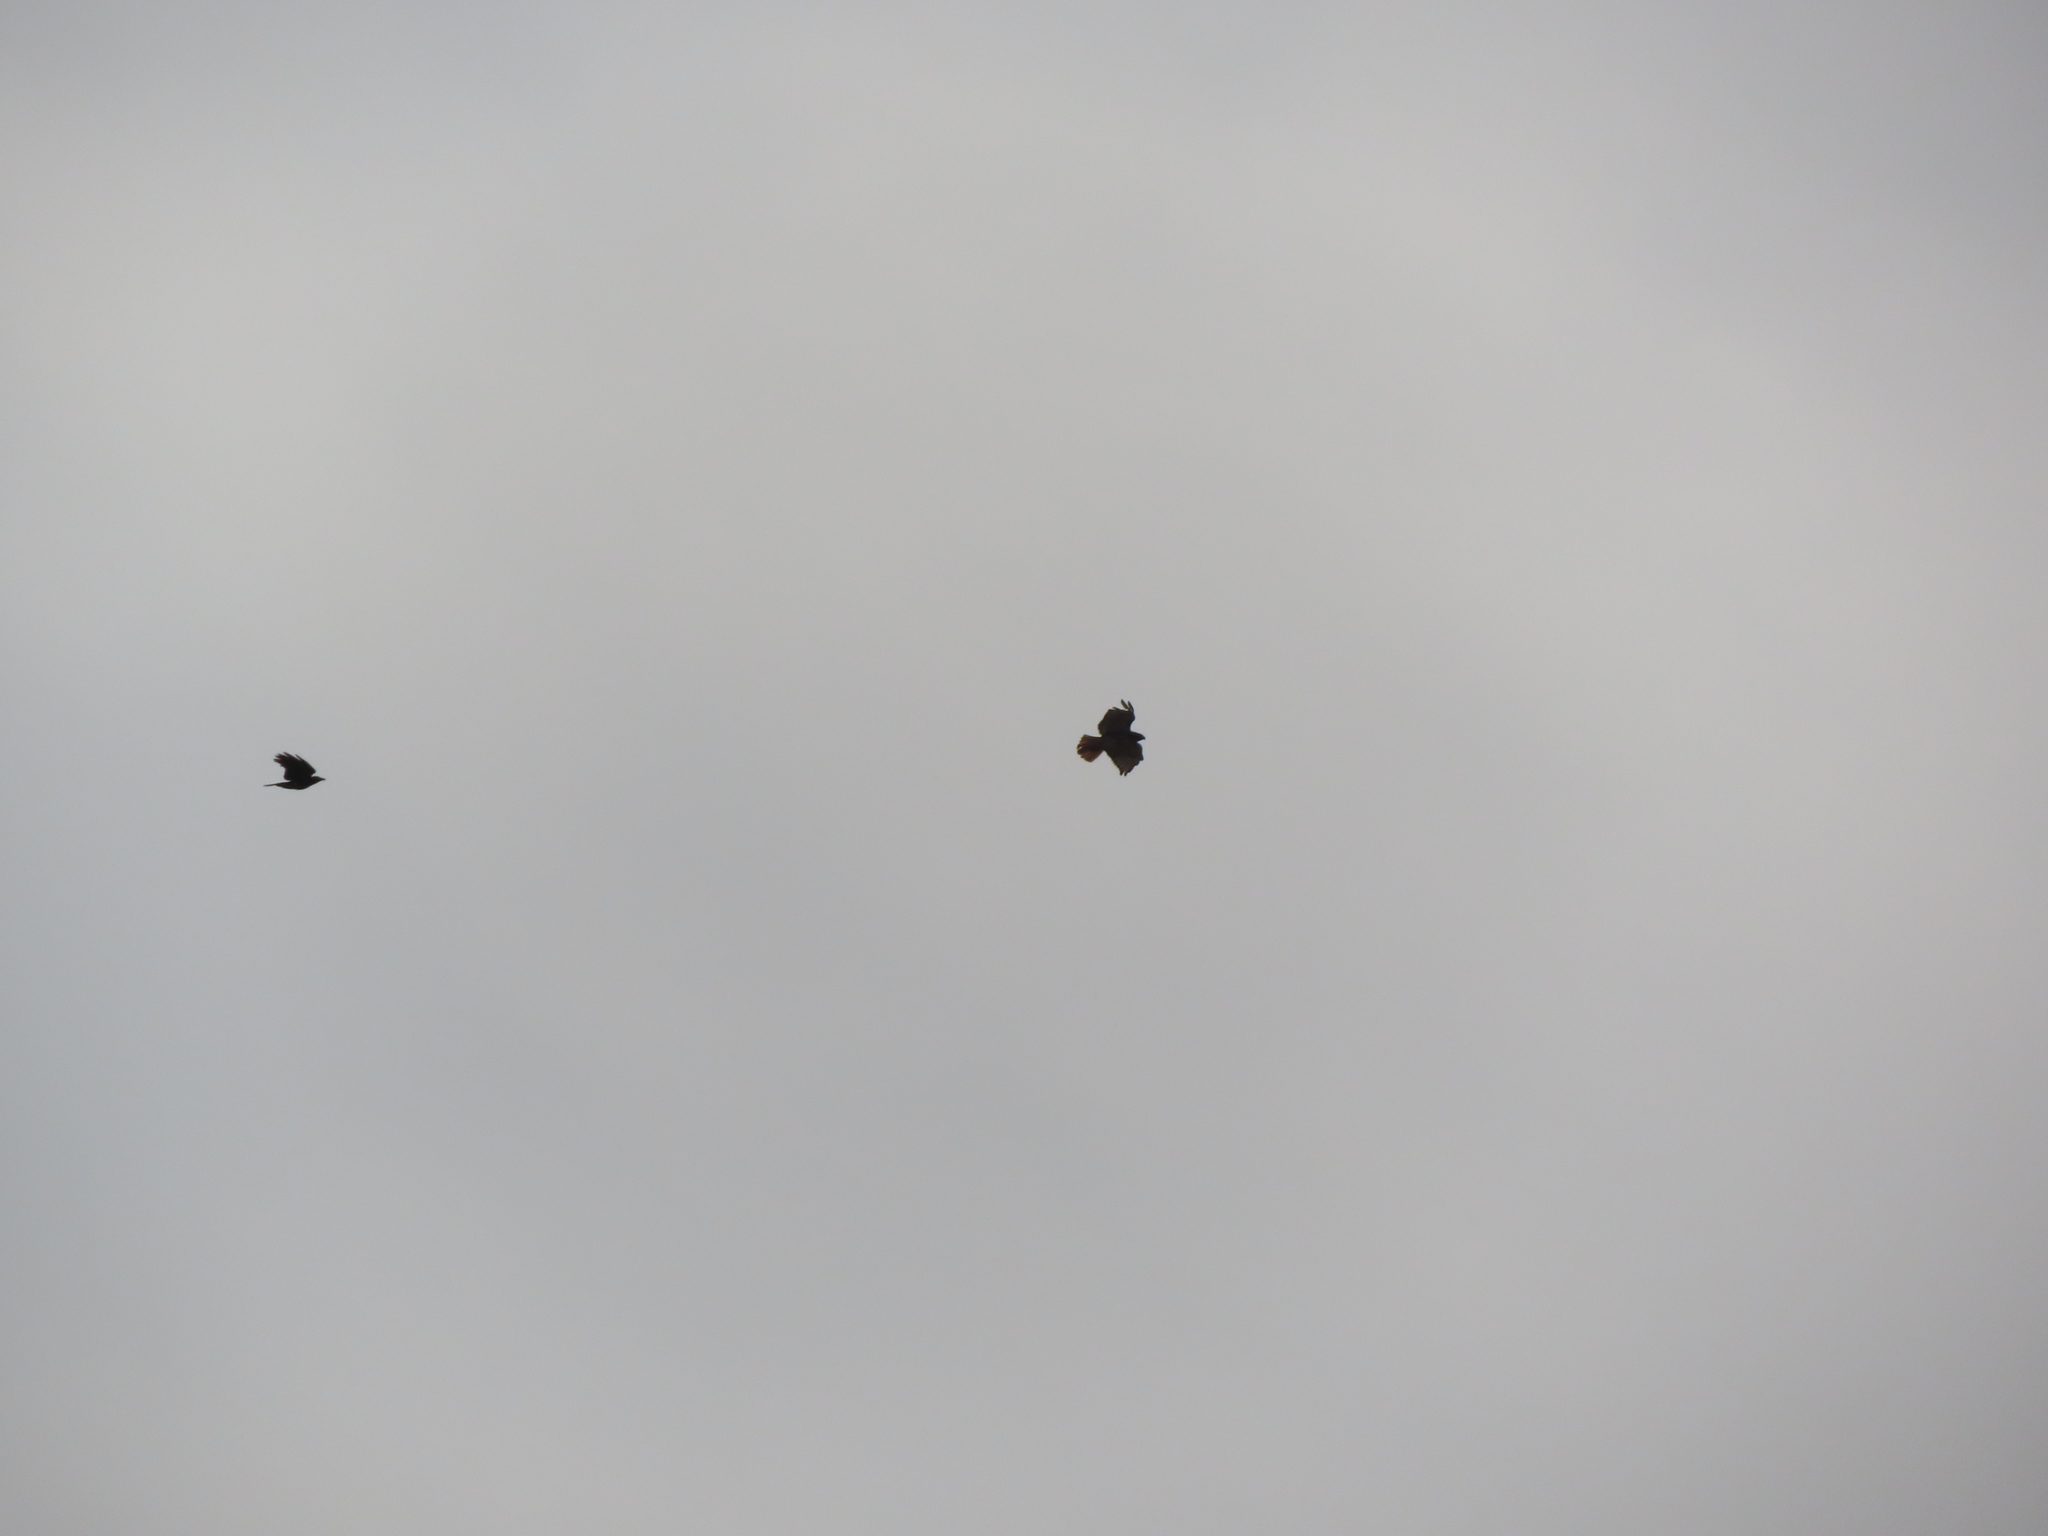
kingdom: Animalia
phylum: Chordata
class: Aves
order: Accipitriformes
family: Accipitridae
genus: Buteo
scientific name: Buteo jamaicensis
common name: Red-tailed hawk
